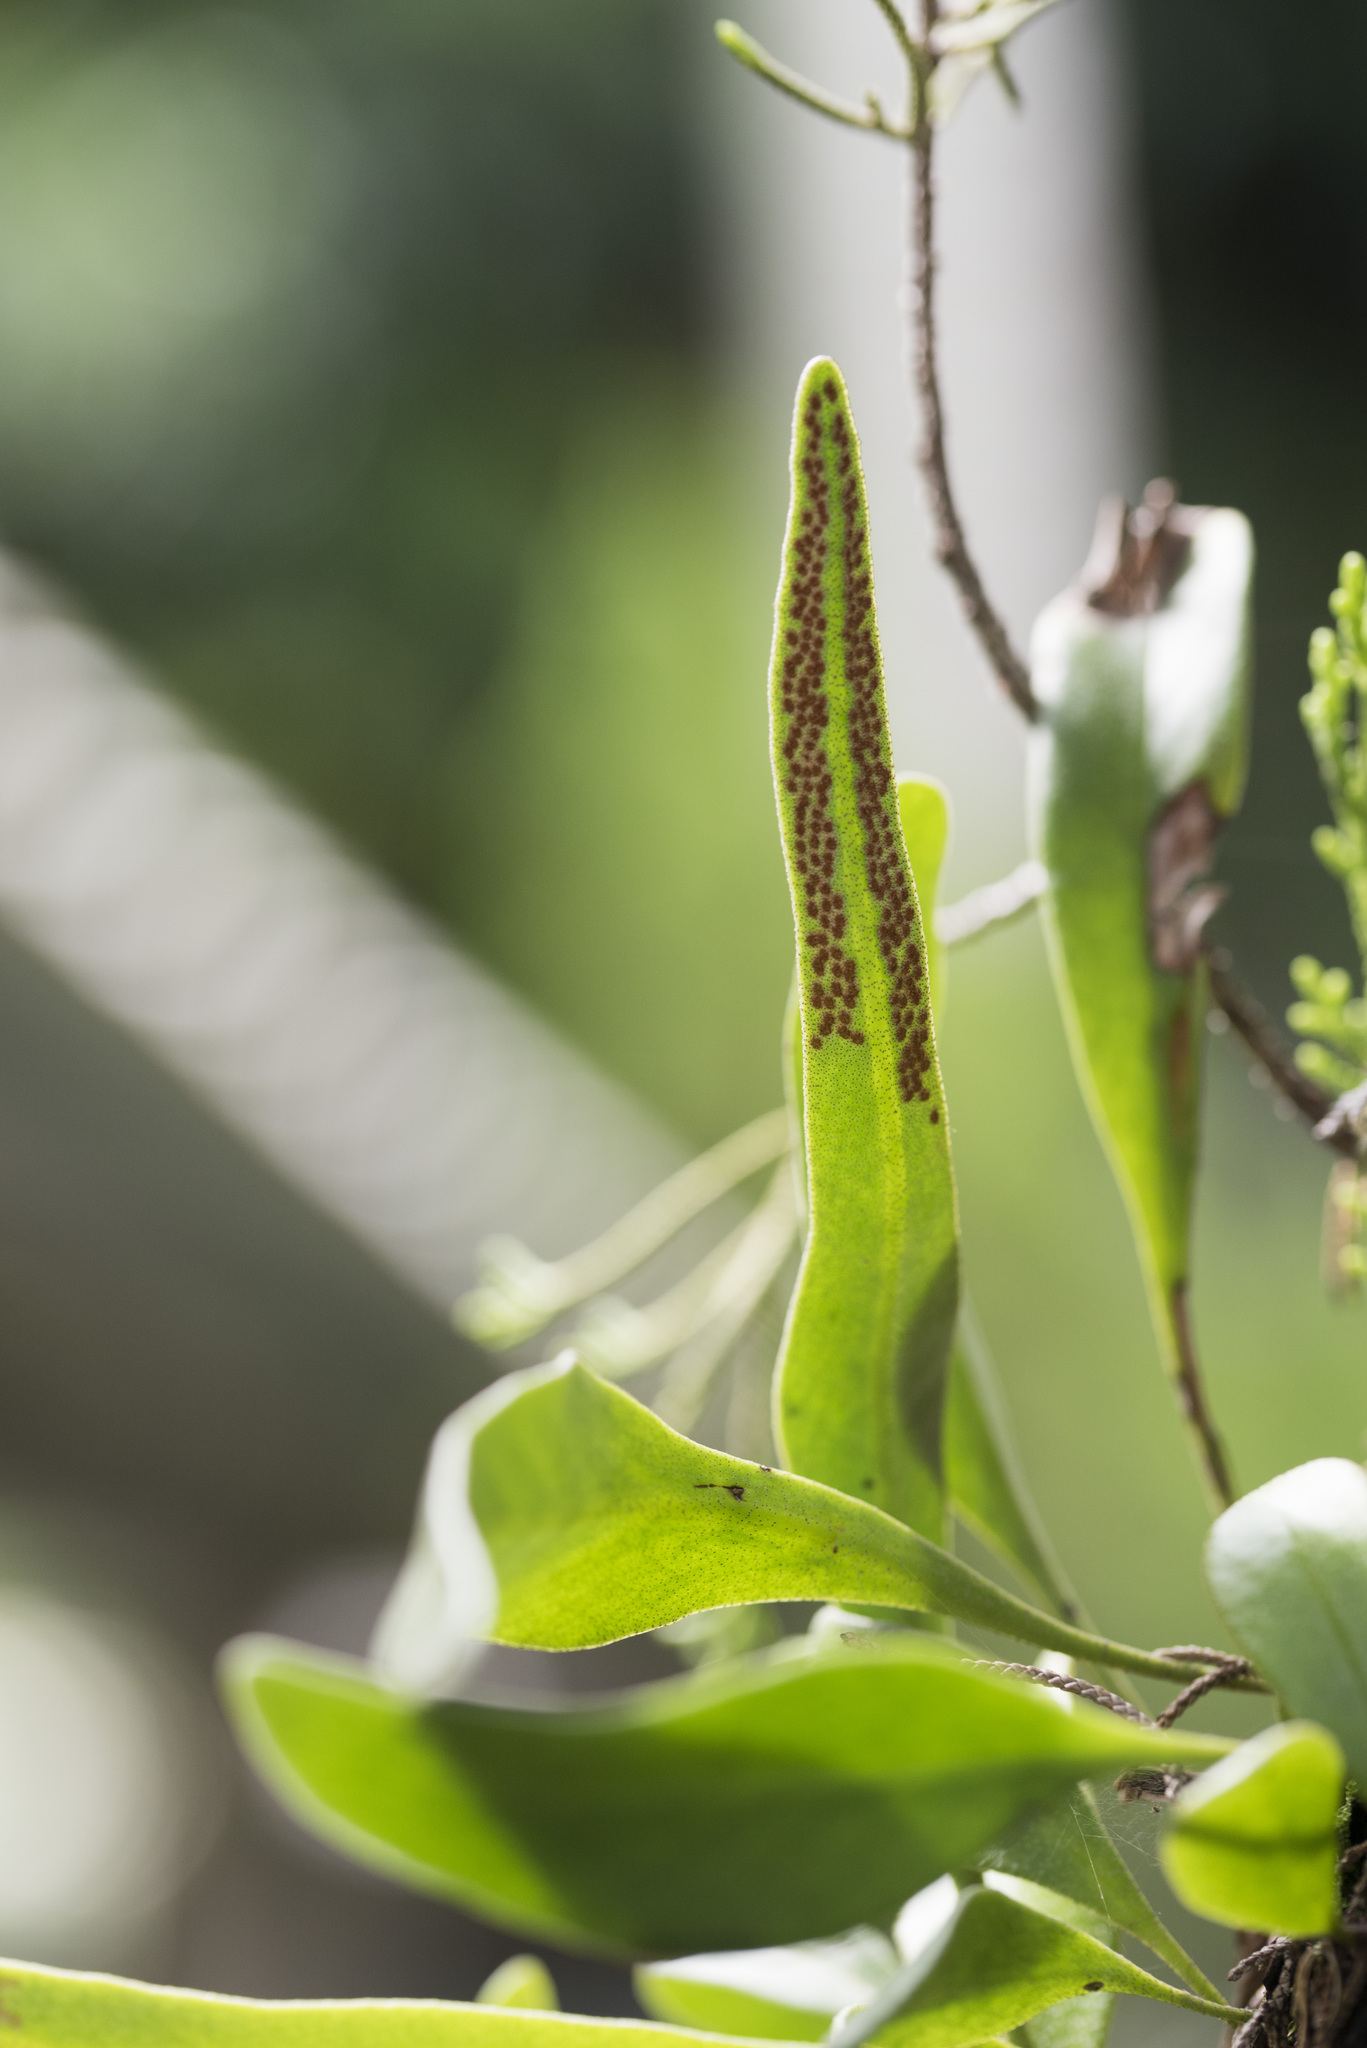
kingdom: Plantae
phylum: Tracheophyta
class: Polypodiopsida
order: Polypodiales
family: Polypodiaceae
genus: Pyrrosia
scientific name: Pyrrosia lanceolata
